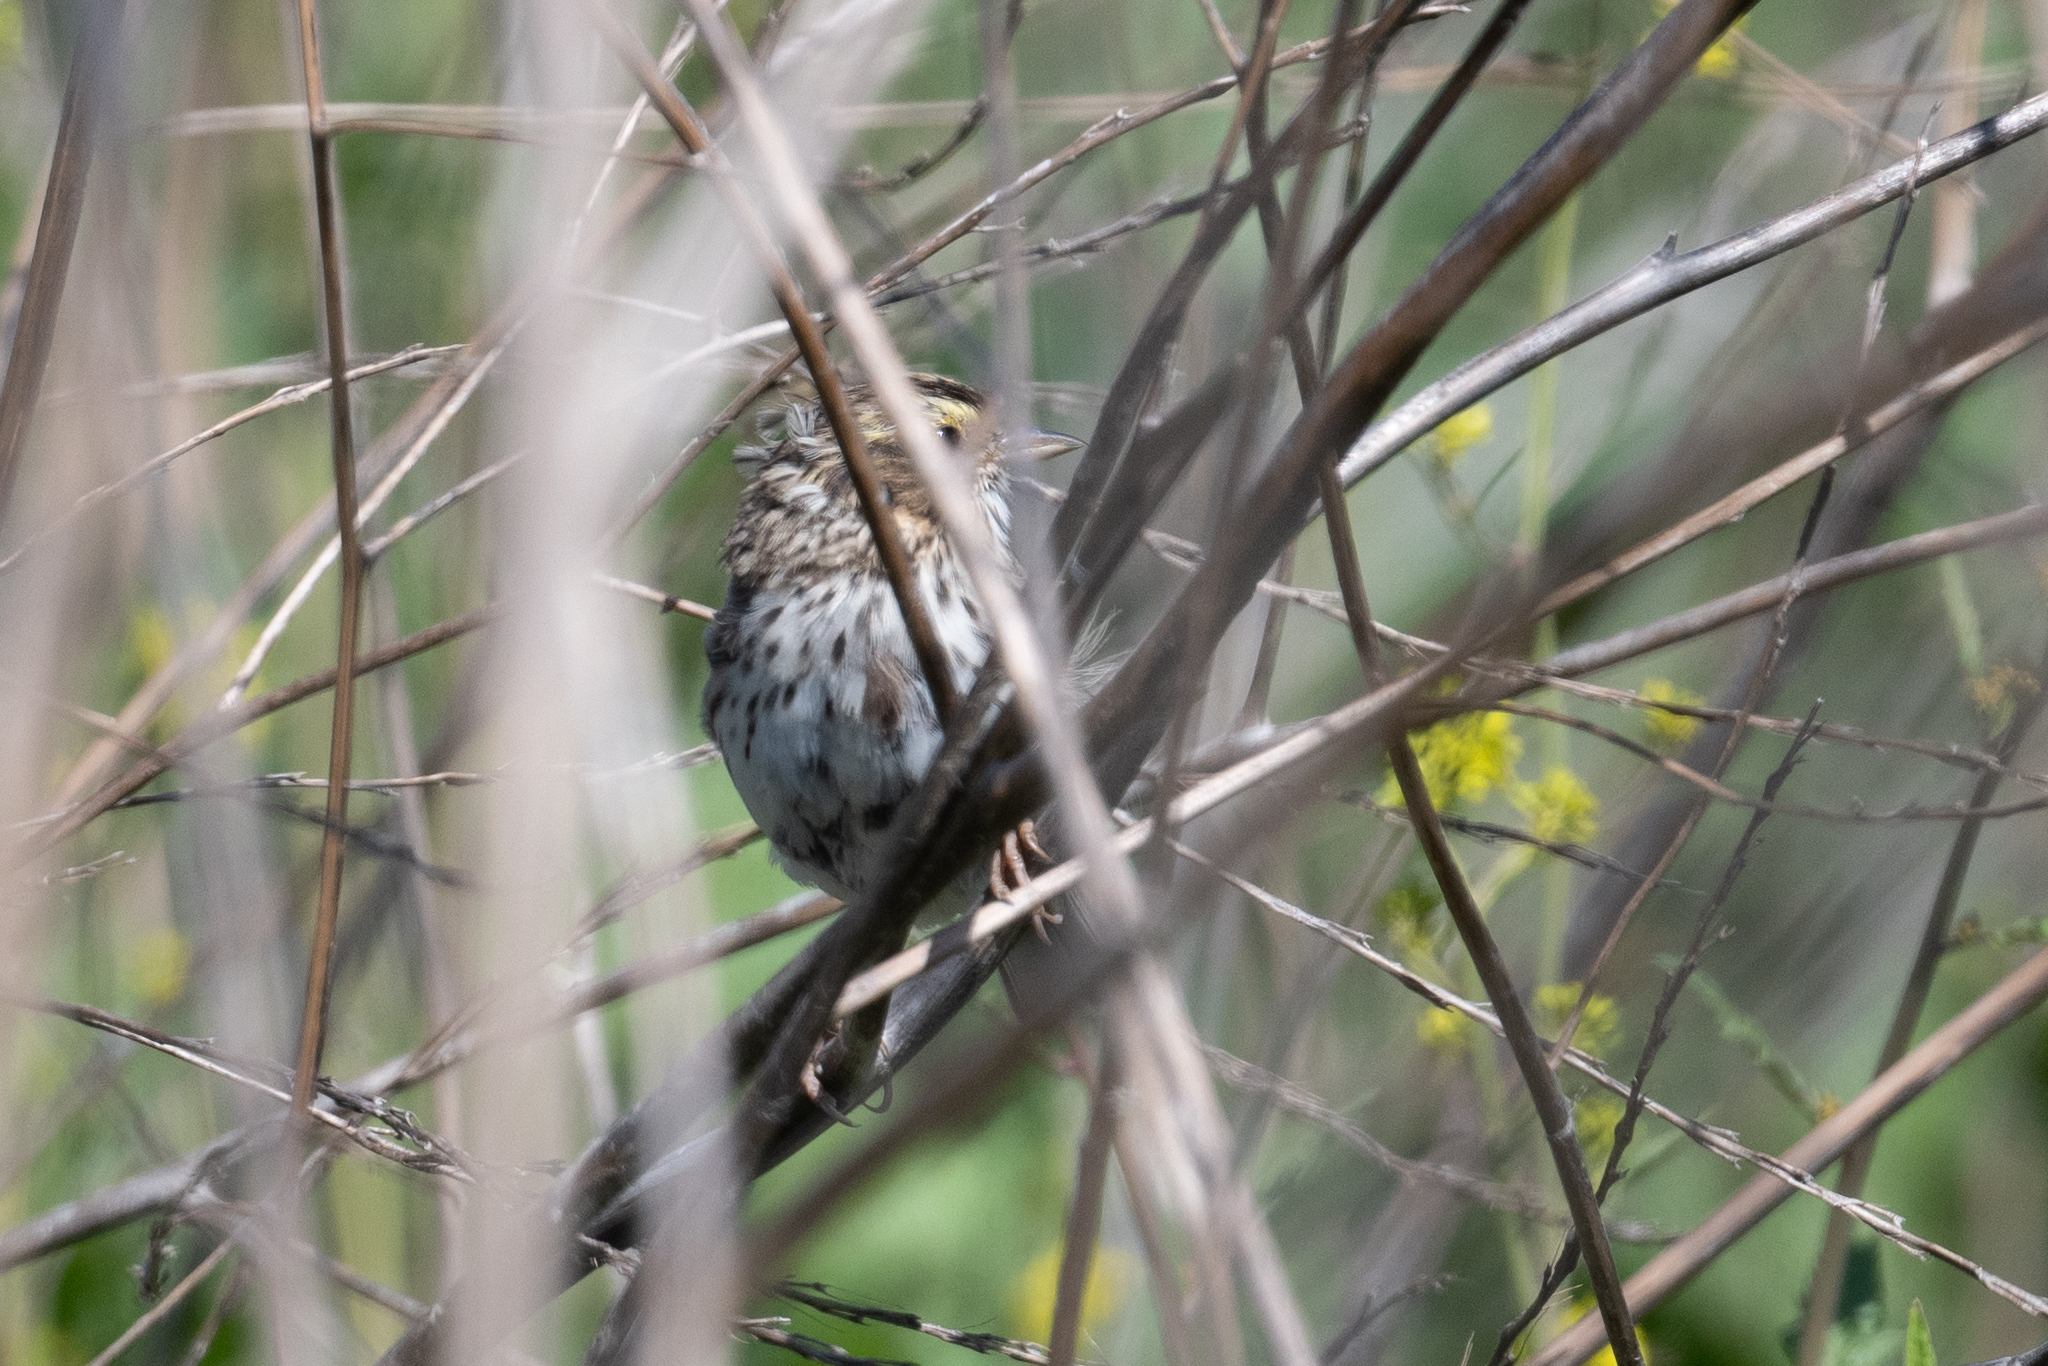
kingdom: Animalia
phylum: Chordata
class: Aves
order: Passeriformes
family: Passerellidae
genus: Passerculus
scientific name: Passerculus sandwichensis
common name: Savannah sparrow
